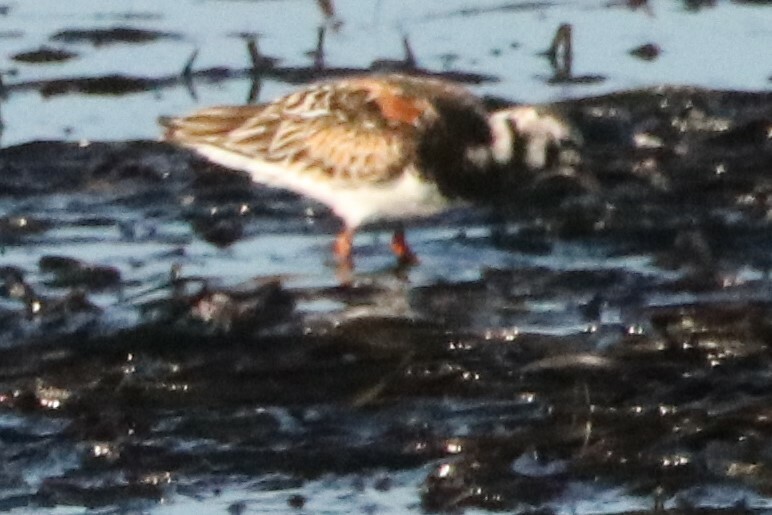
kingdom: Animalia
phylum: Chordata
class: Aves
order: Charadriiformes
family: Scolopacidae
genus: Arenaria
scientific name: Arenaria interpres
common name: Ruddy turnstone
